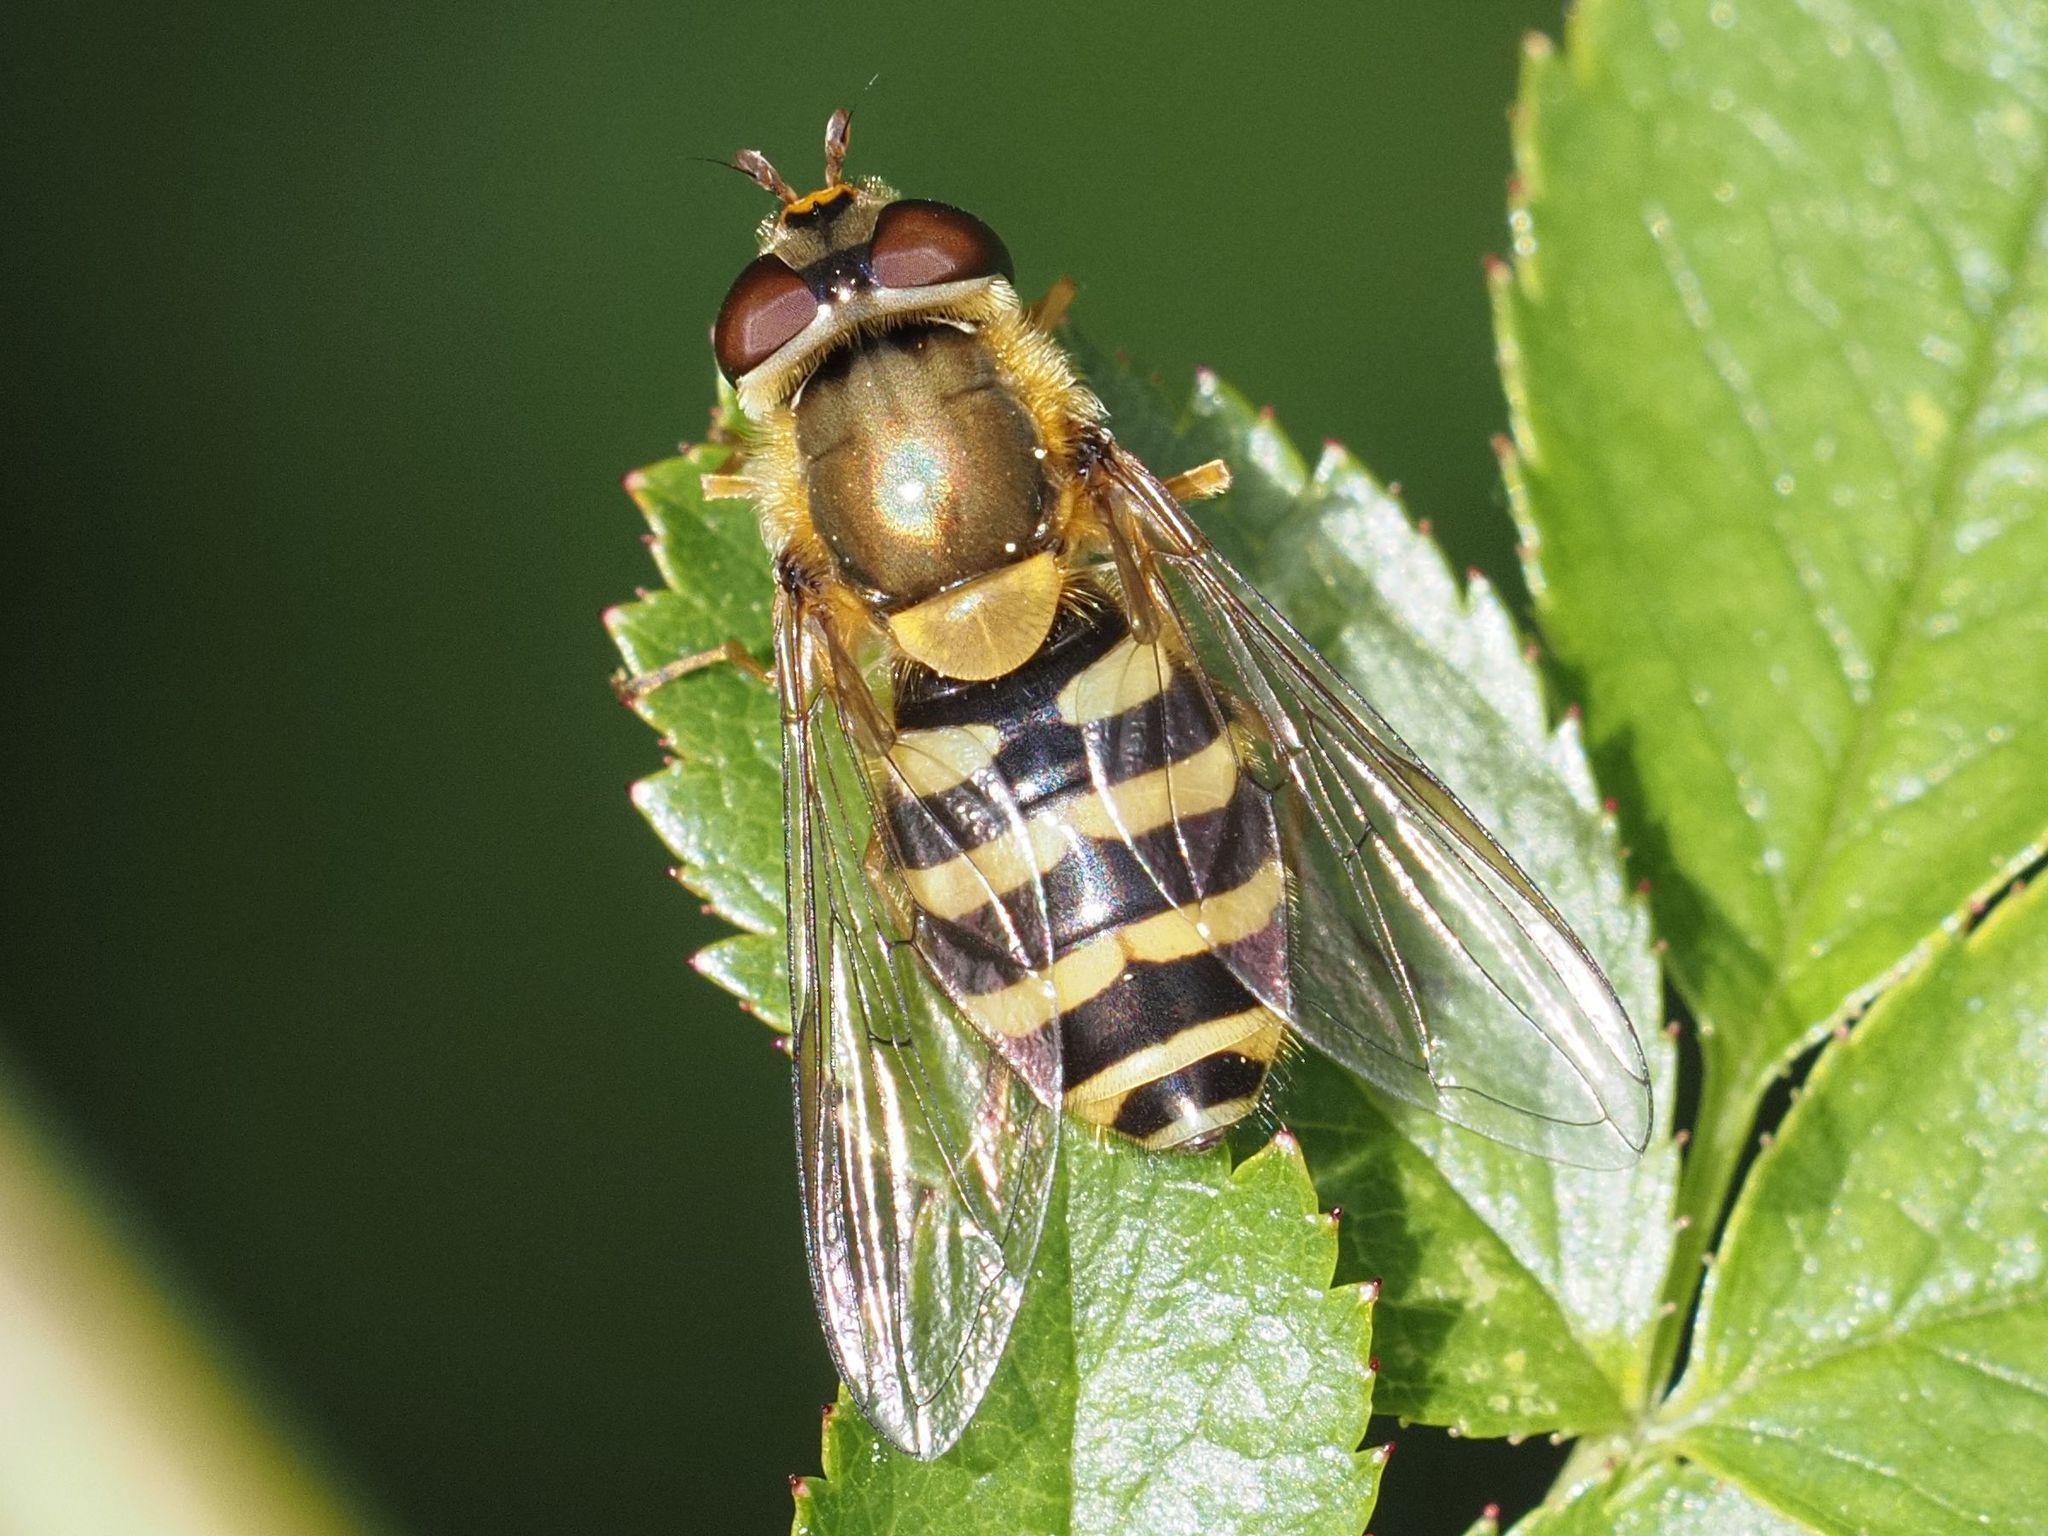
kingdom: Animalia
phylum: Arthropoda
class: Insecta
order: Diptera
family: Syrphidae
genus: Syrphus
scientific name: Syrphus
